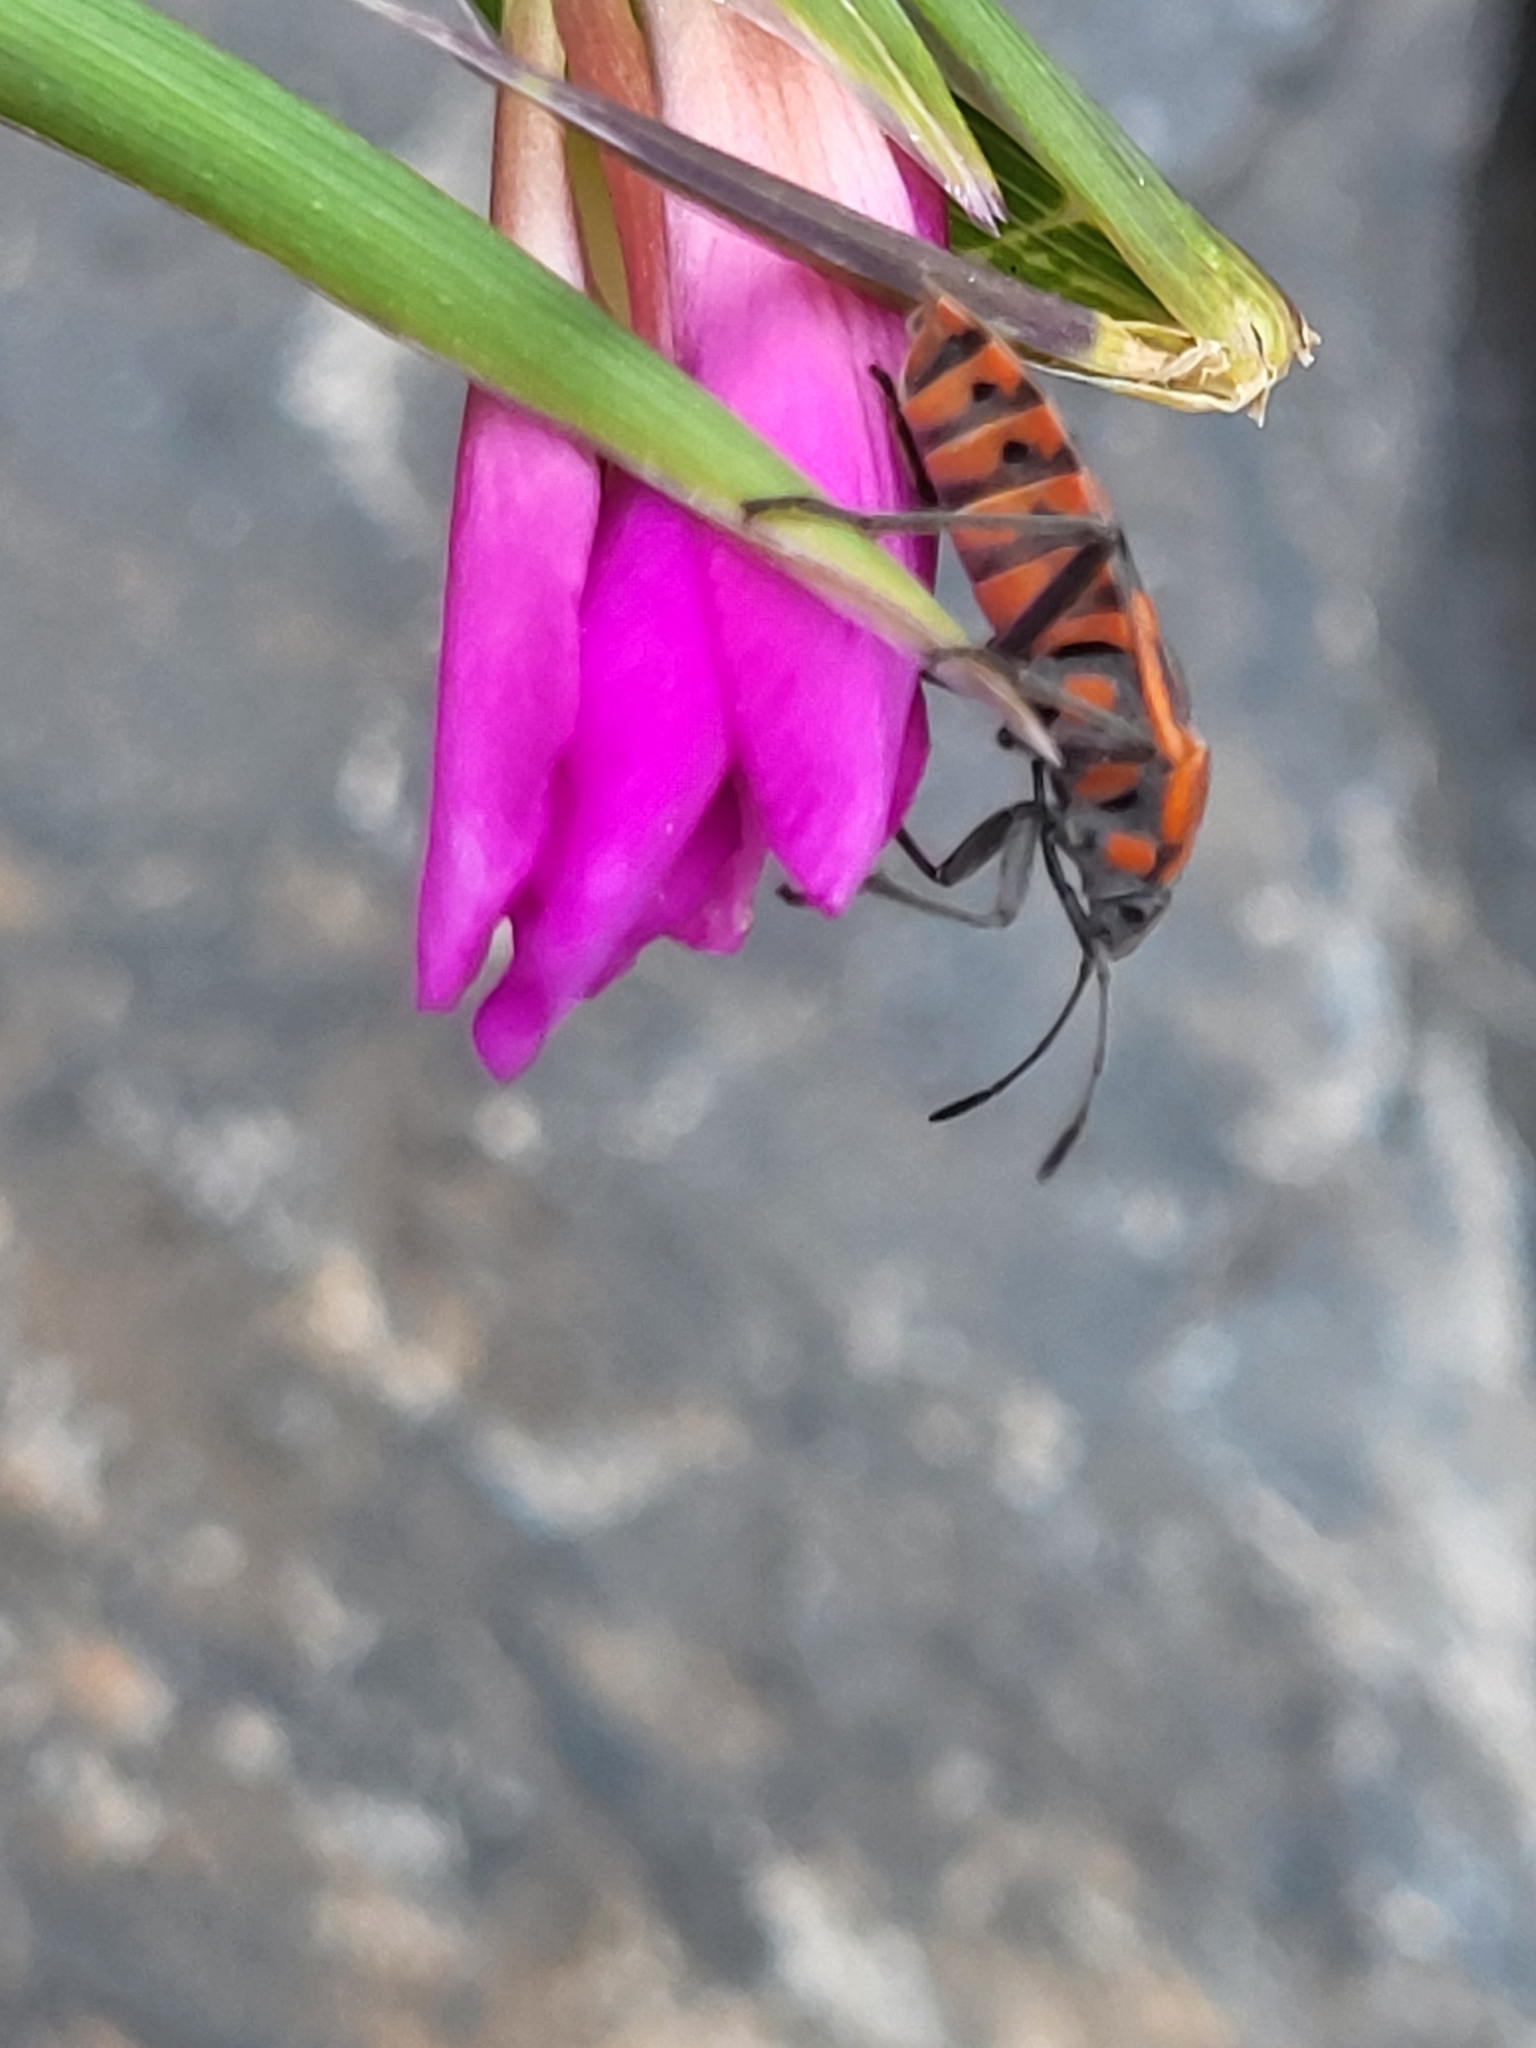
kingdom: Animalia
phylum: Arthropoda
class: Insecta
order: Hemiptera
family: Lygaeidae
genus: Spilostethus
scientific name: Spilostethus pandurus
